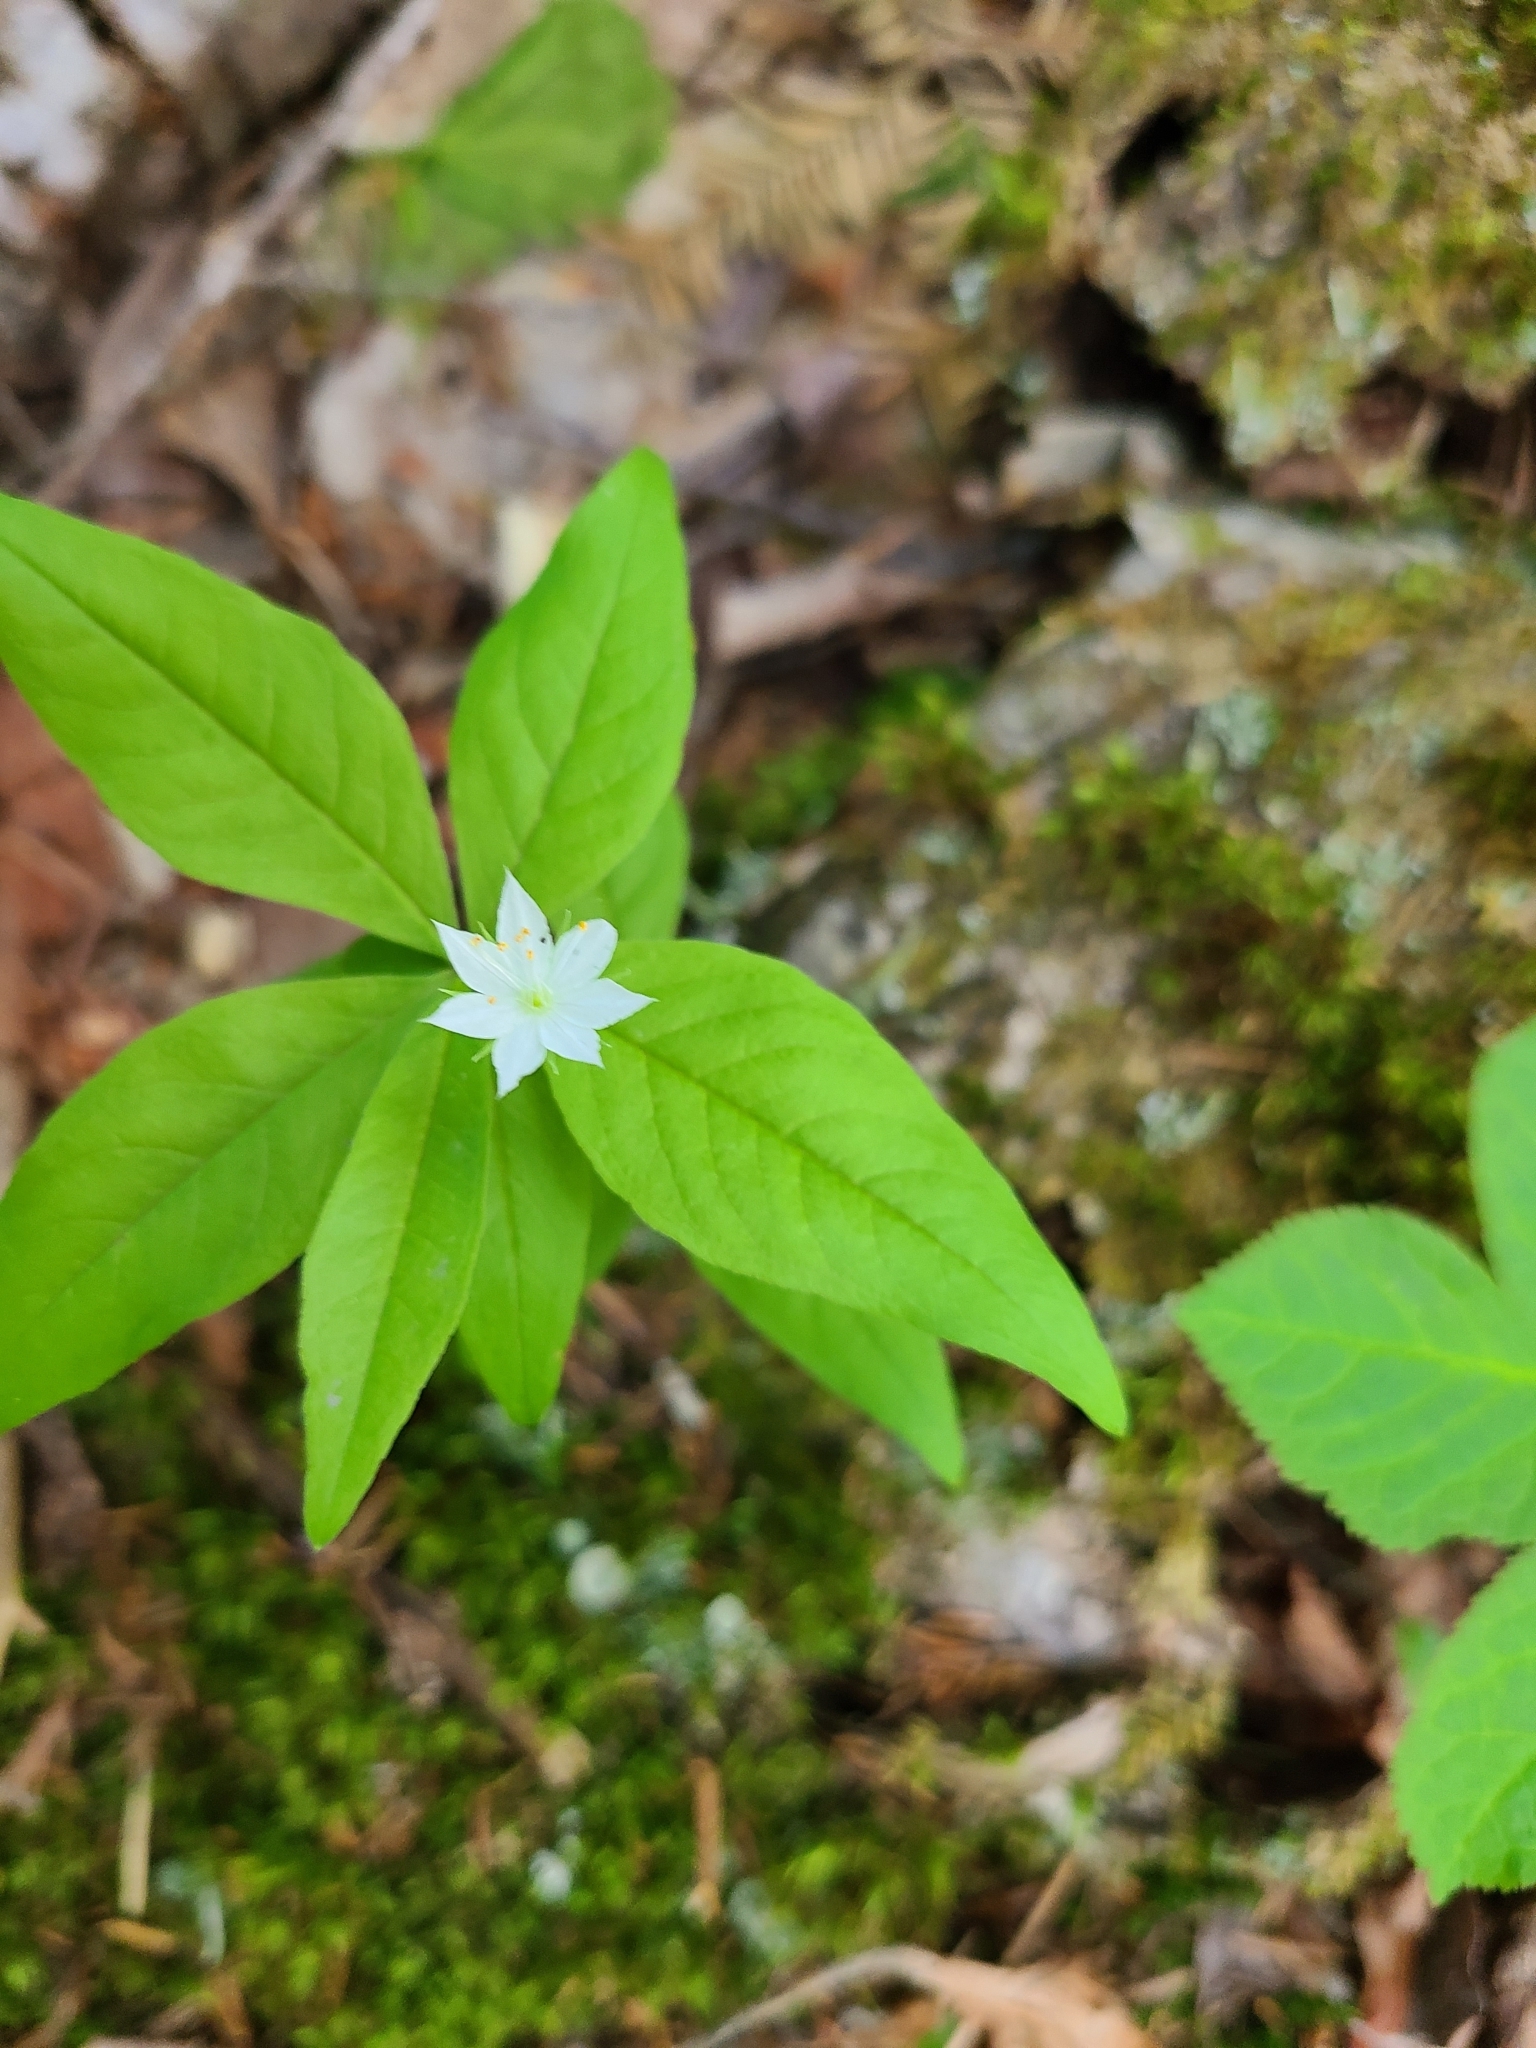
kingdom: Plantae
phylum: Tracheophyta
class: Magnoliopsida
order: Ericales
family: Primulaceae
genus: Lysimachia
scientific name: Lysimachia borealis
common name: American starflower
